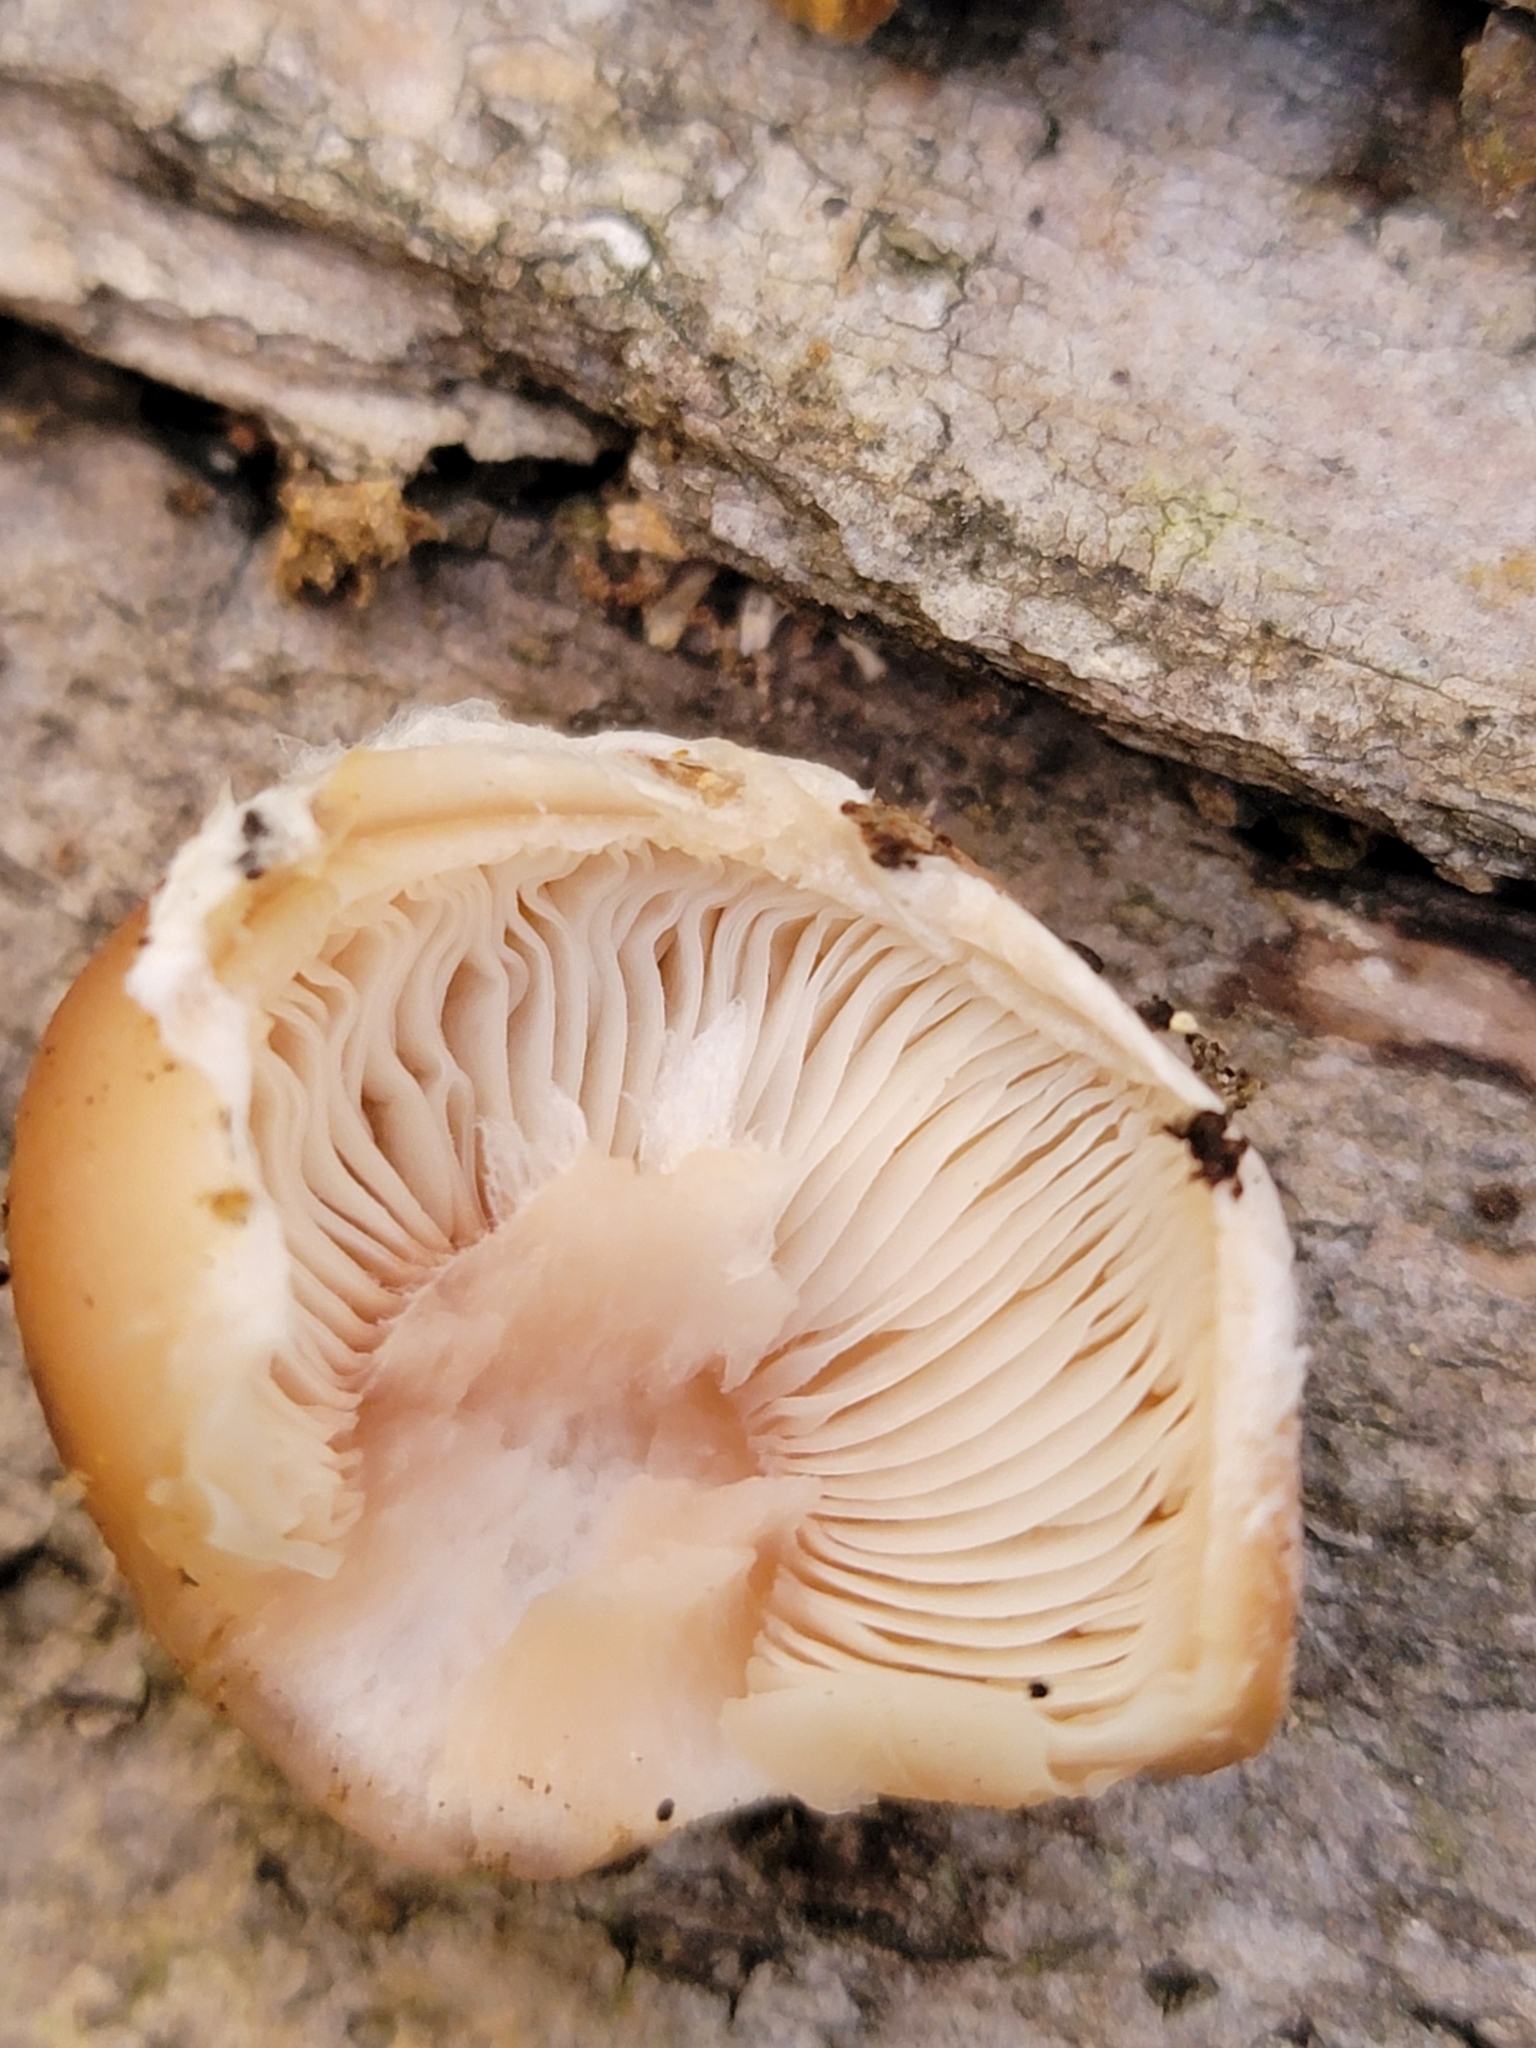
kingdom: Fungi
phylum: Basidiomycota
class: Agaricomycetes
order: Agaricales
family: Physalacriaceae
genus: Armillaria
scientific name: Armillaria gallica
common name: Bulbous honey fungus
